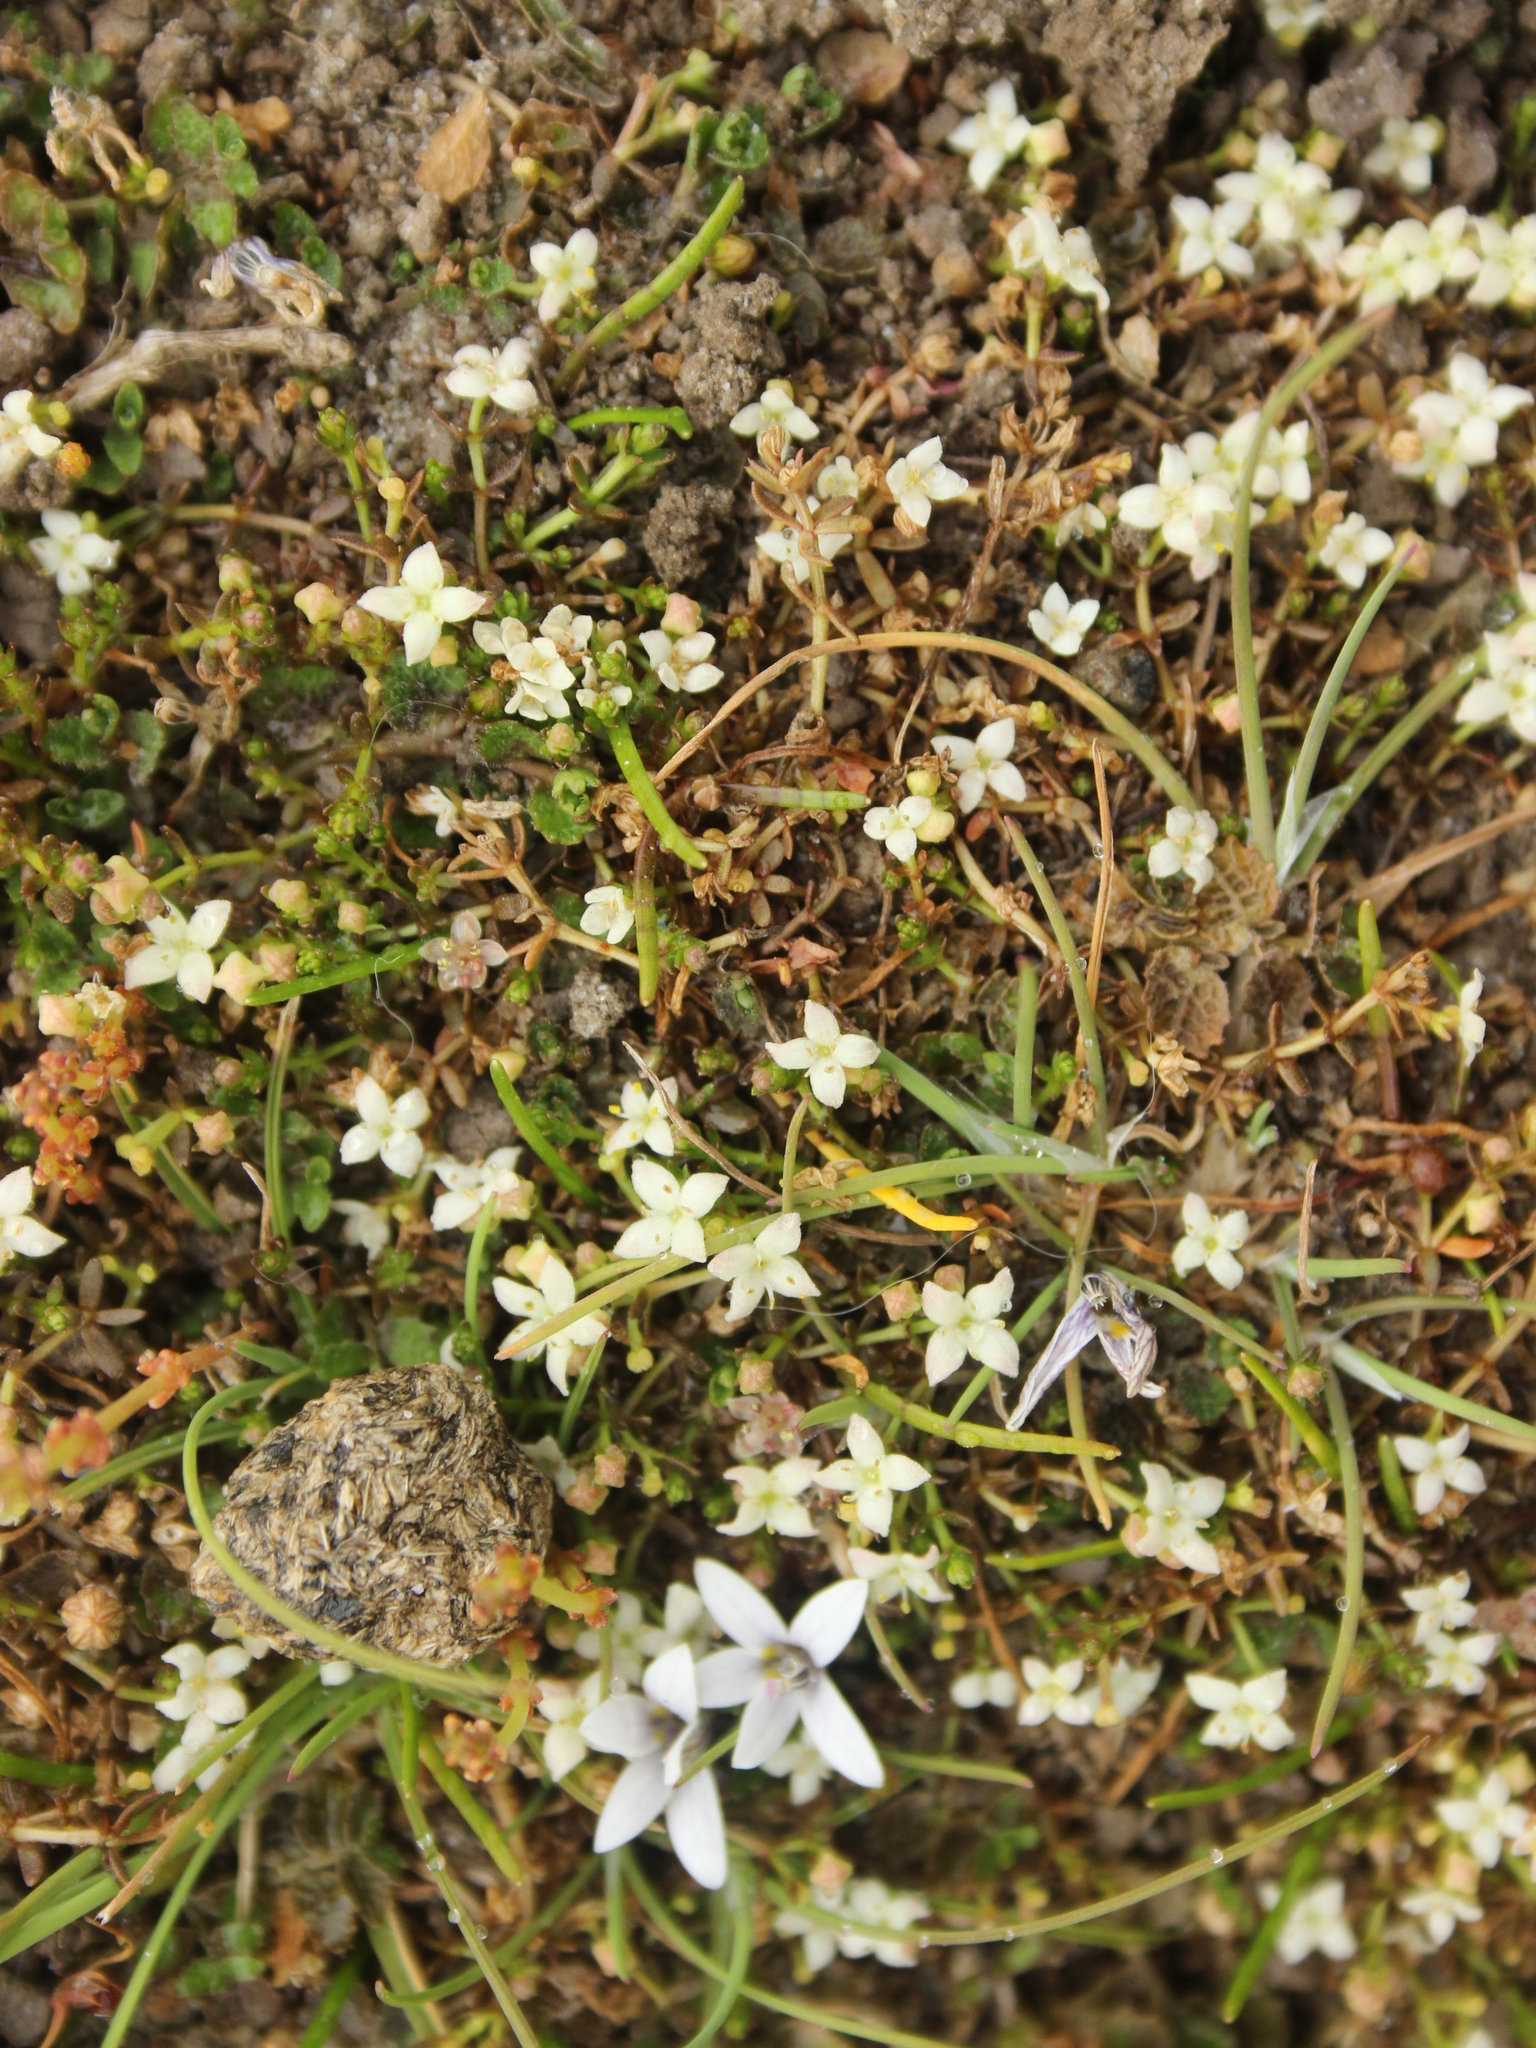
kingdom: Plantae
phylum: Tracheophyta
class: Magnoliopsida
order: Gentianales
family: Rubiaceae
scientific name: Rubiaceae
